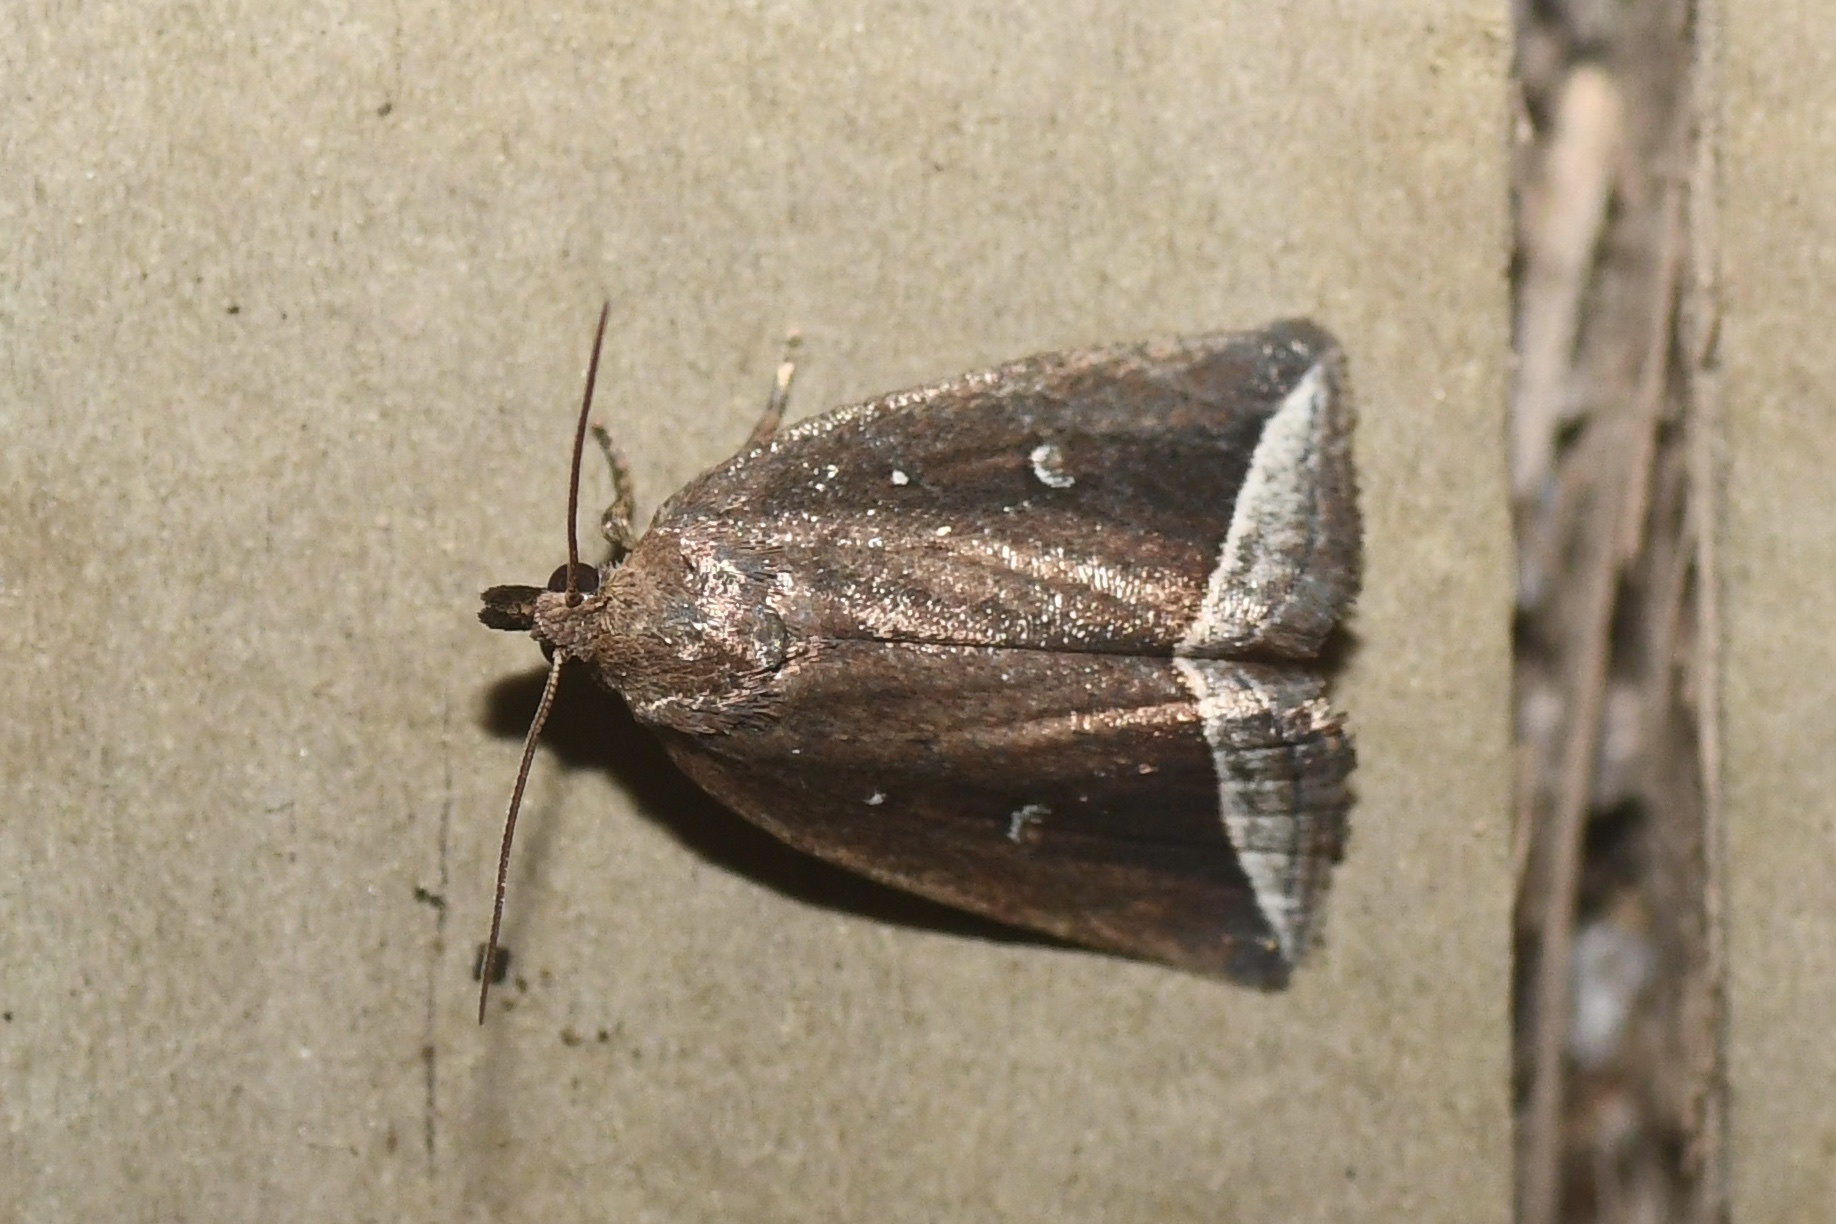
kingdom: Animalia
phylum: Arthropoda
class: Insecta
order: Lepidoptera
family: Erebidae
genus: Capis
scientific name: Capis curvata
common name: Curved halter moth
